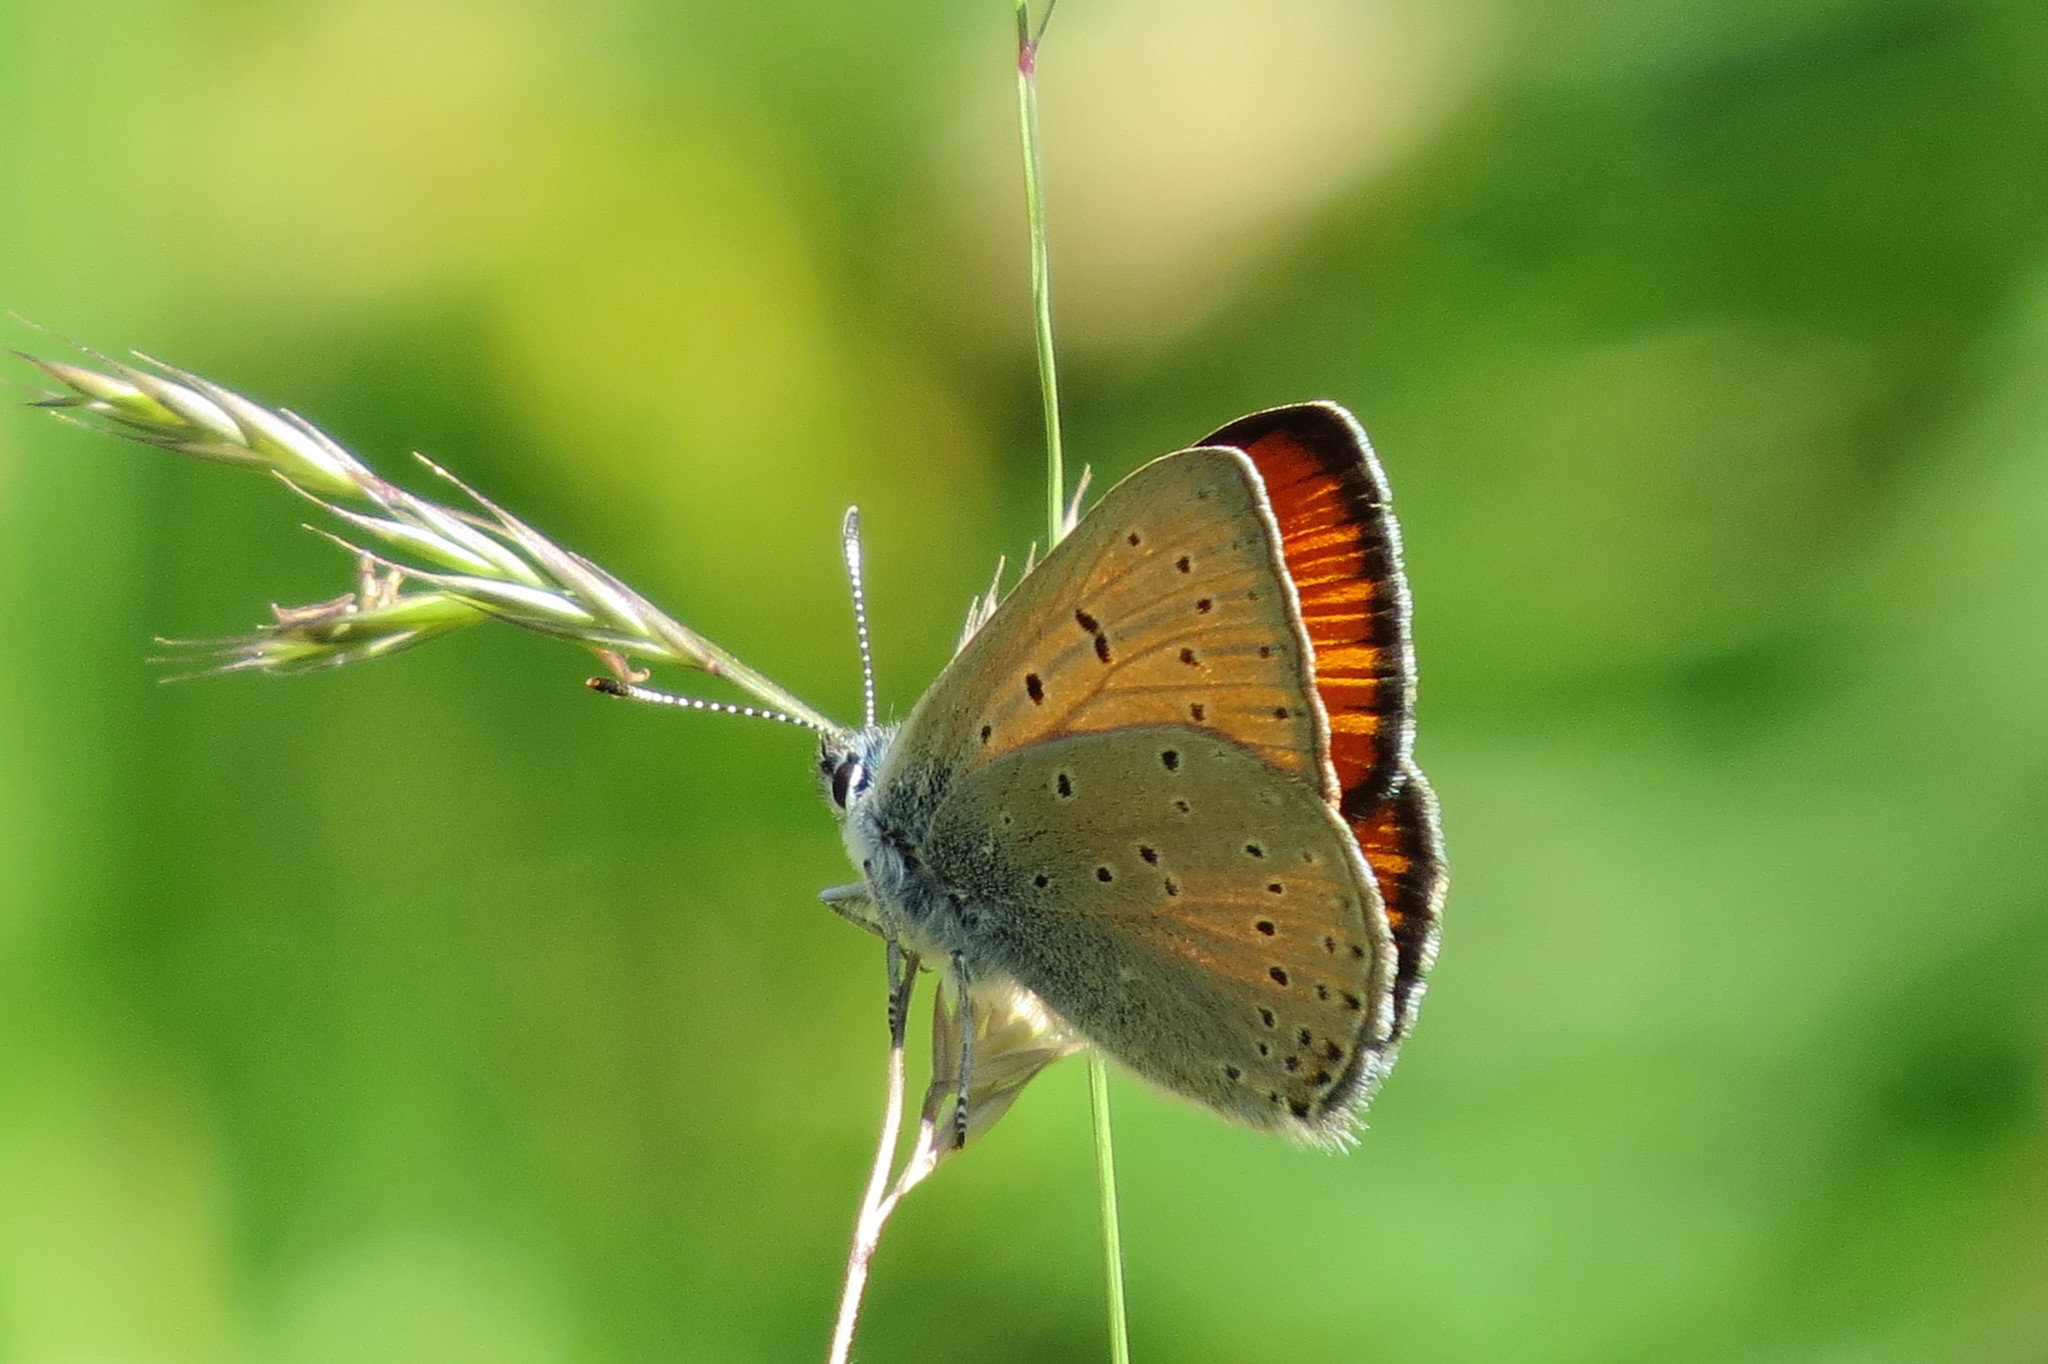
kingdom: Animalia
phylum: Arthropoda
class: Insecta
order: Lepidoptera
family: Lycaenidae
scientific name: Lycaenidae
